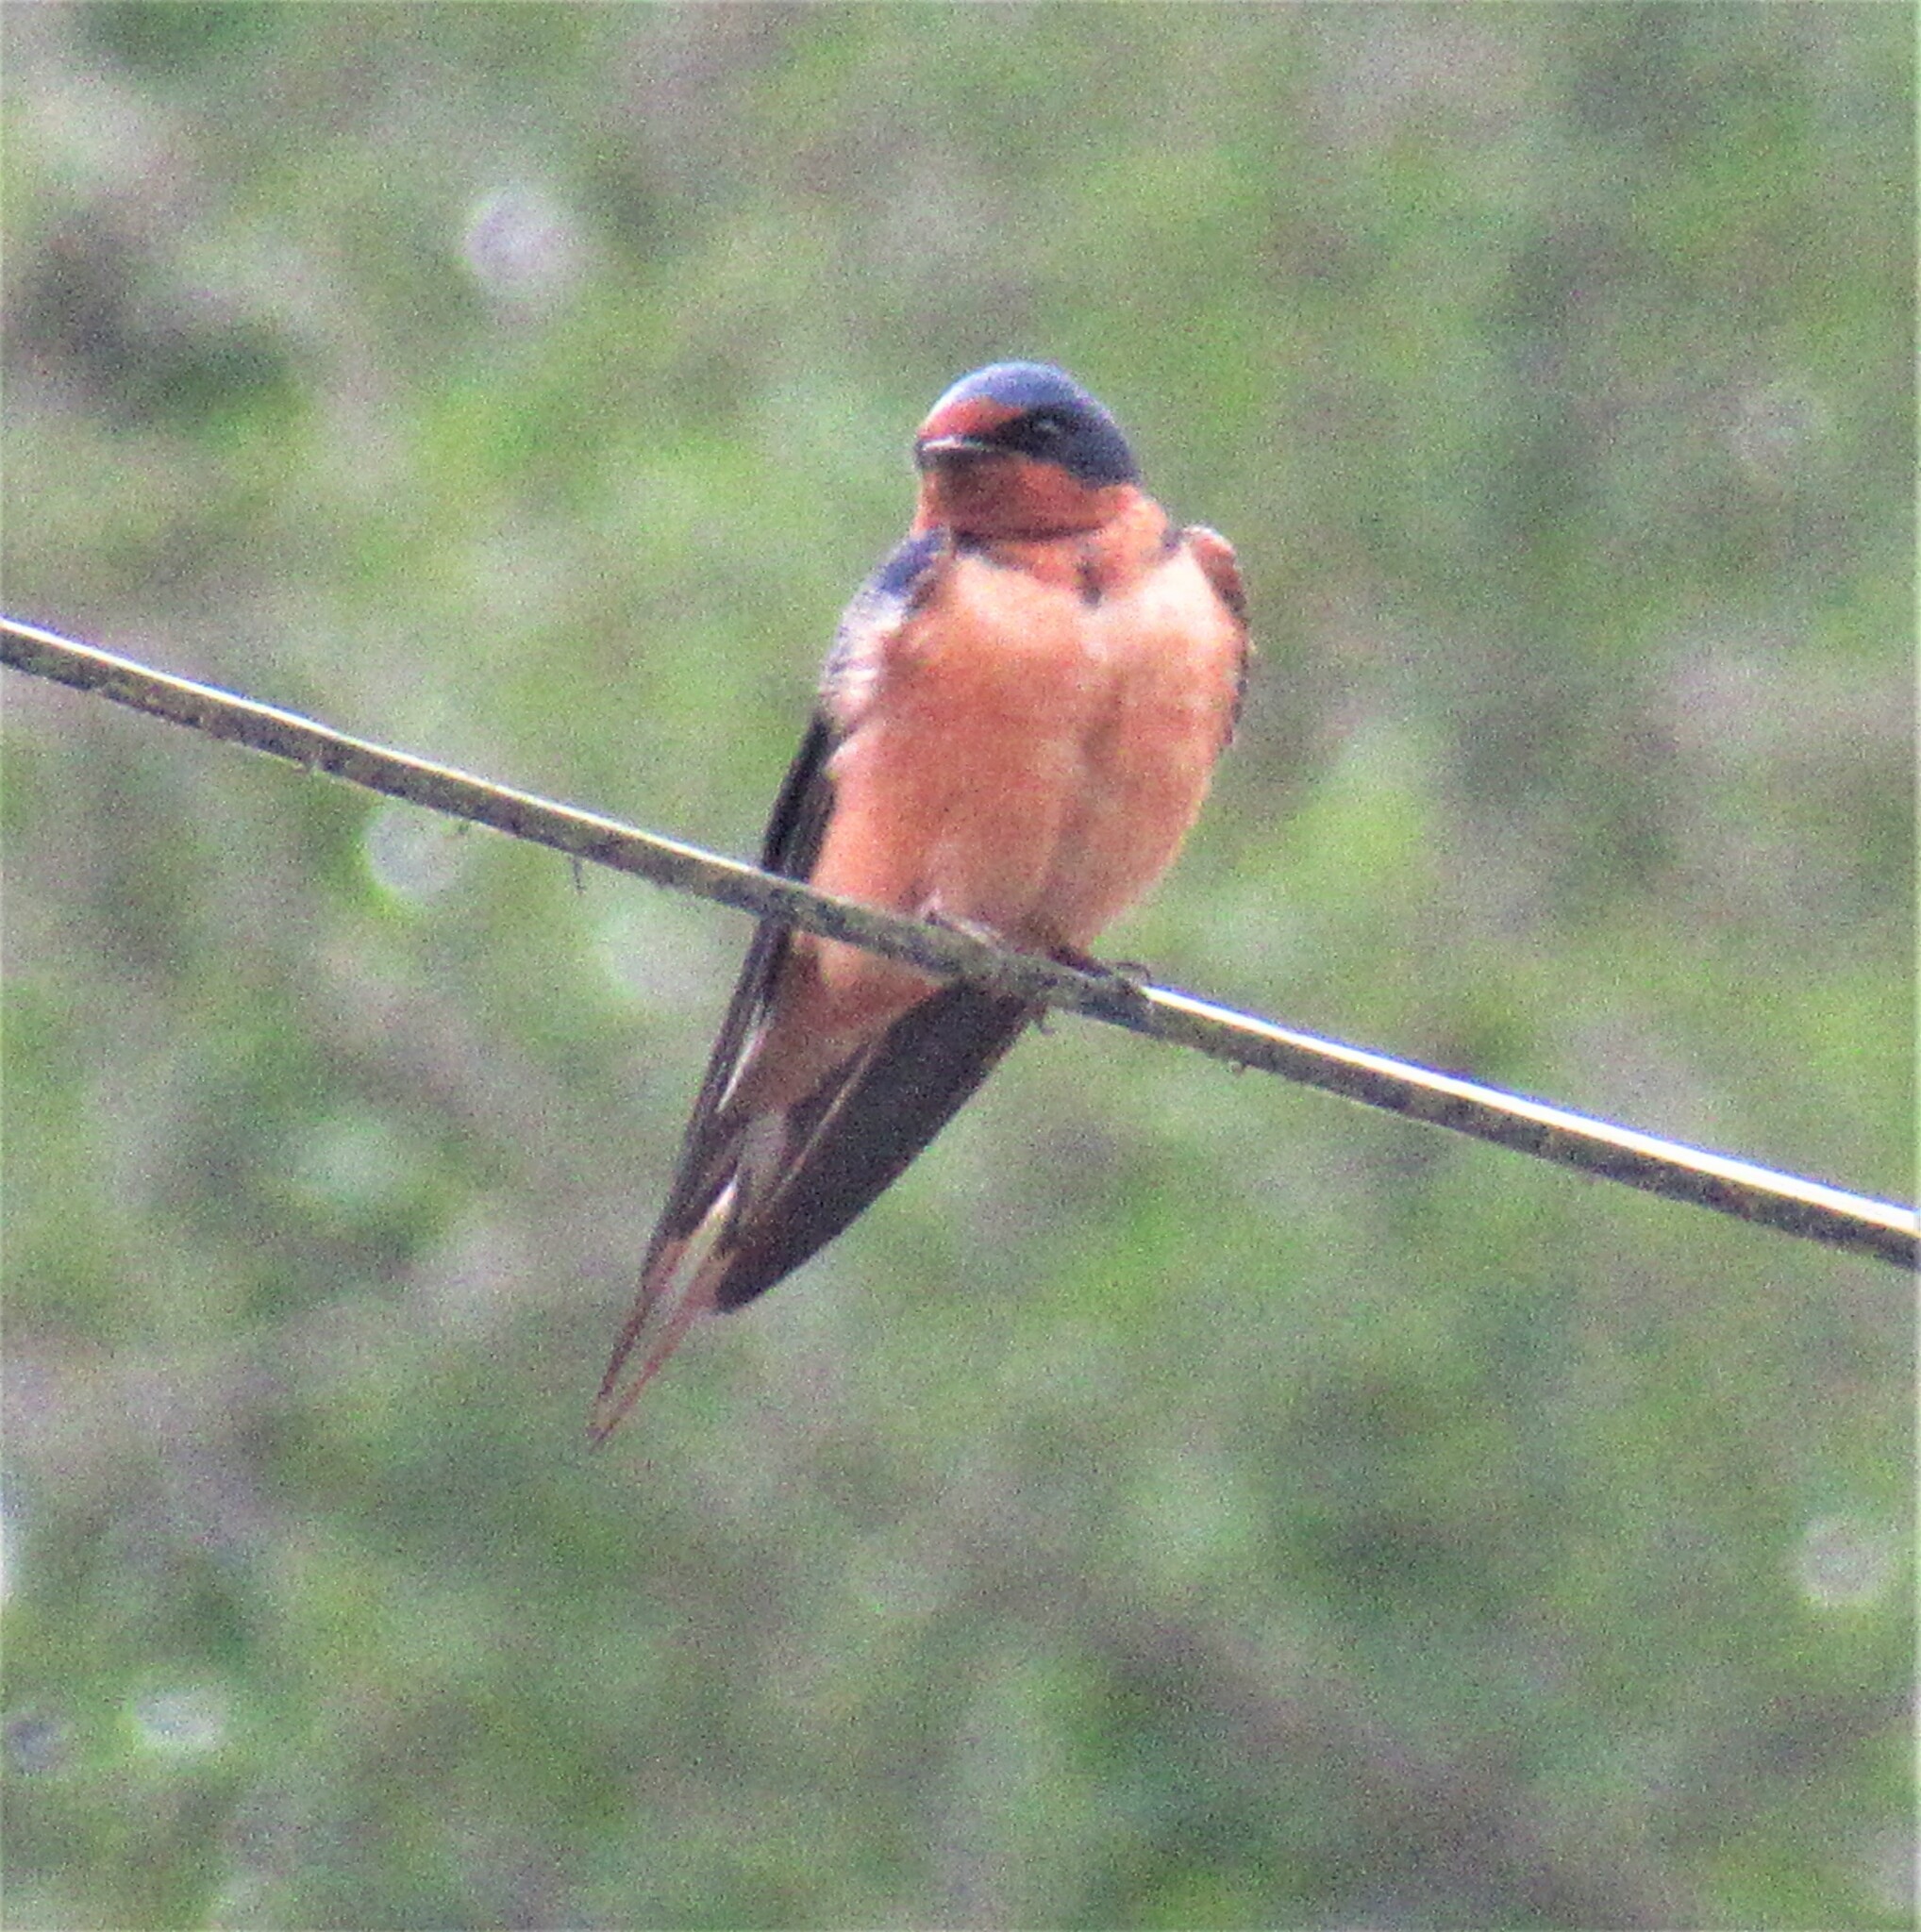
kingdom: Animalia
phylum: Chordata
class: Aves
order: Passeriformes
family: Hirundinidae
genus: Hirundo
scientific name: Hirundo rustica
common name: Barn swallow
